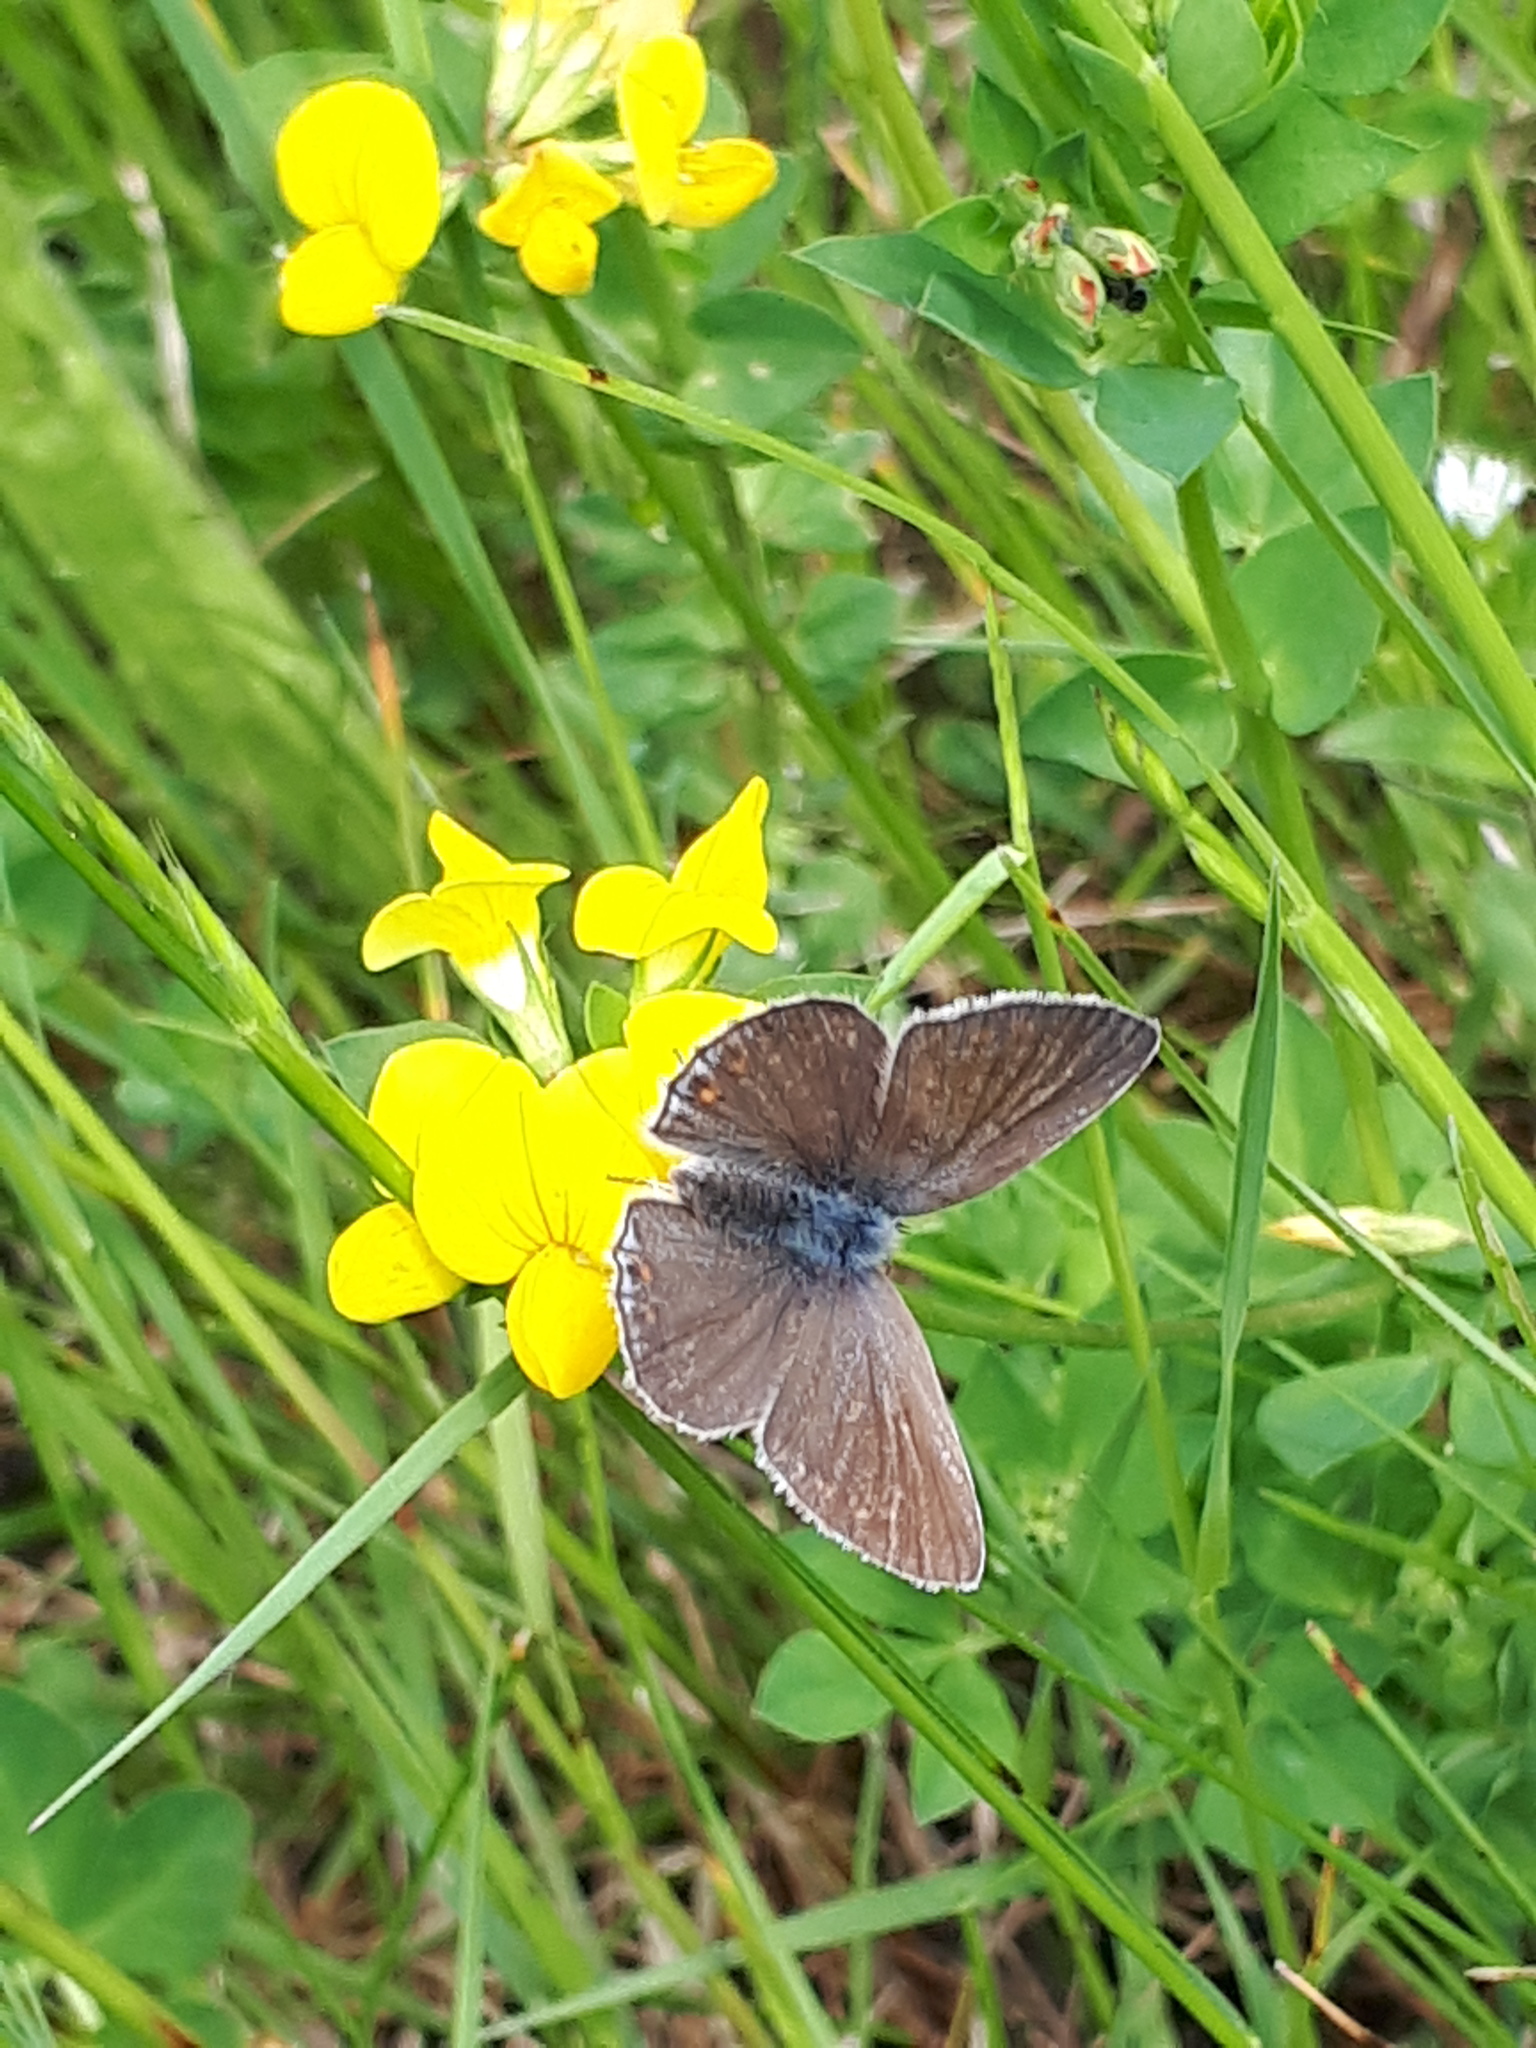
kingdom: Animalia
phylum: Arthropoda
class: Insecta
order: Lepidoptera
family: Lycaenidae
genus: Polyommatus
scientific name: Polyommatus icarus
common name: Common blue
